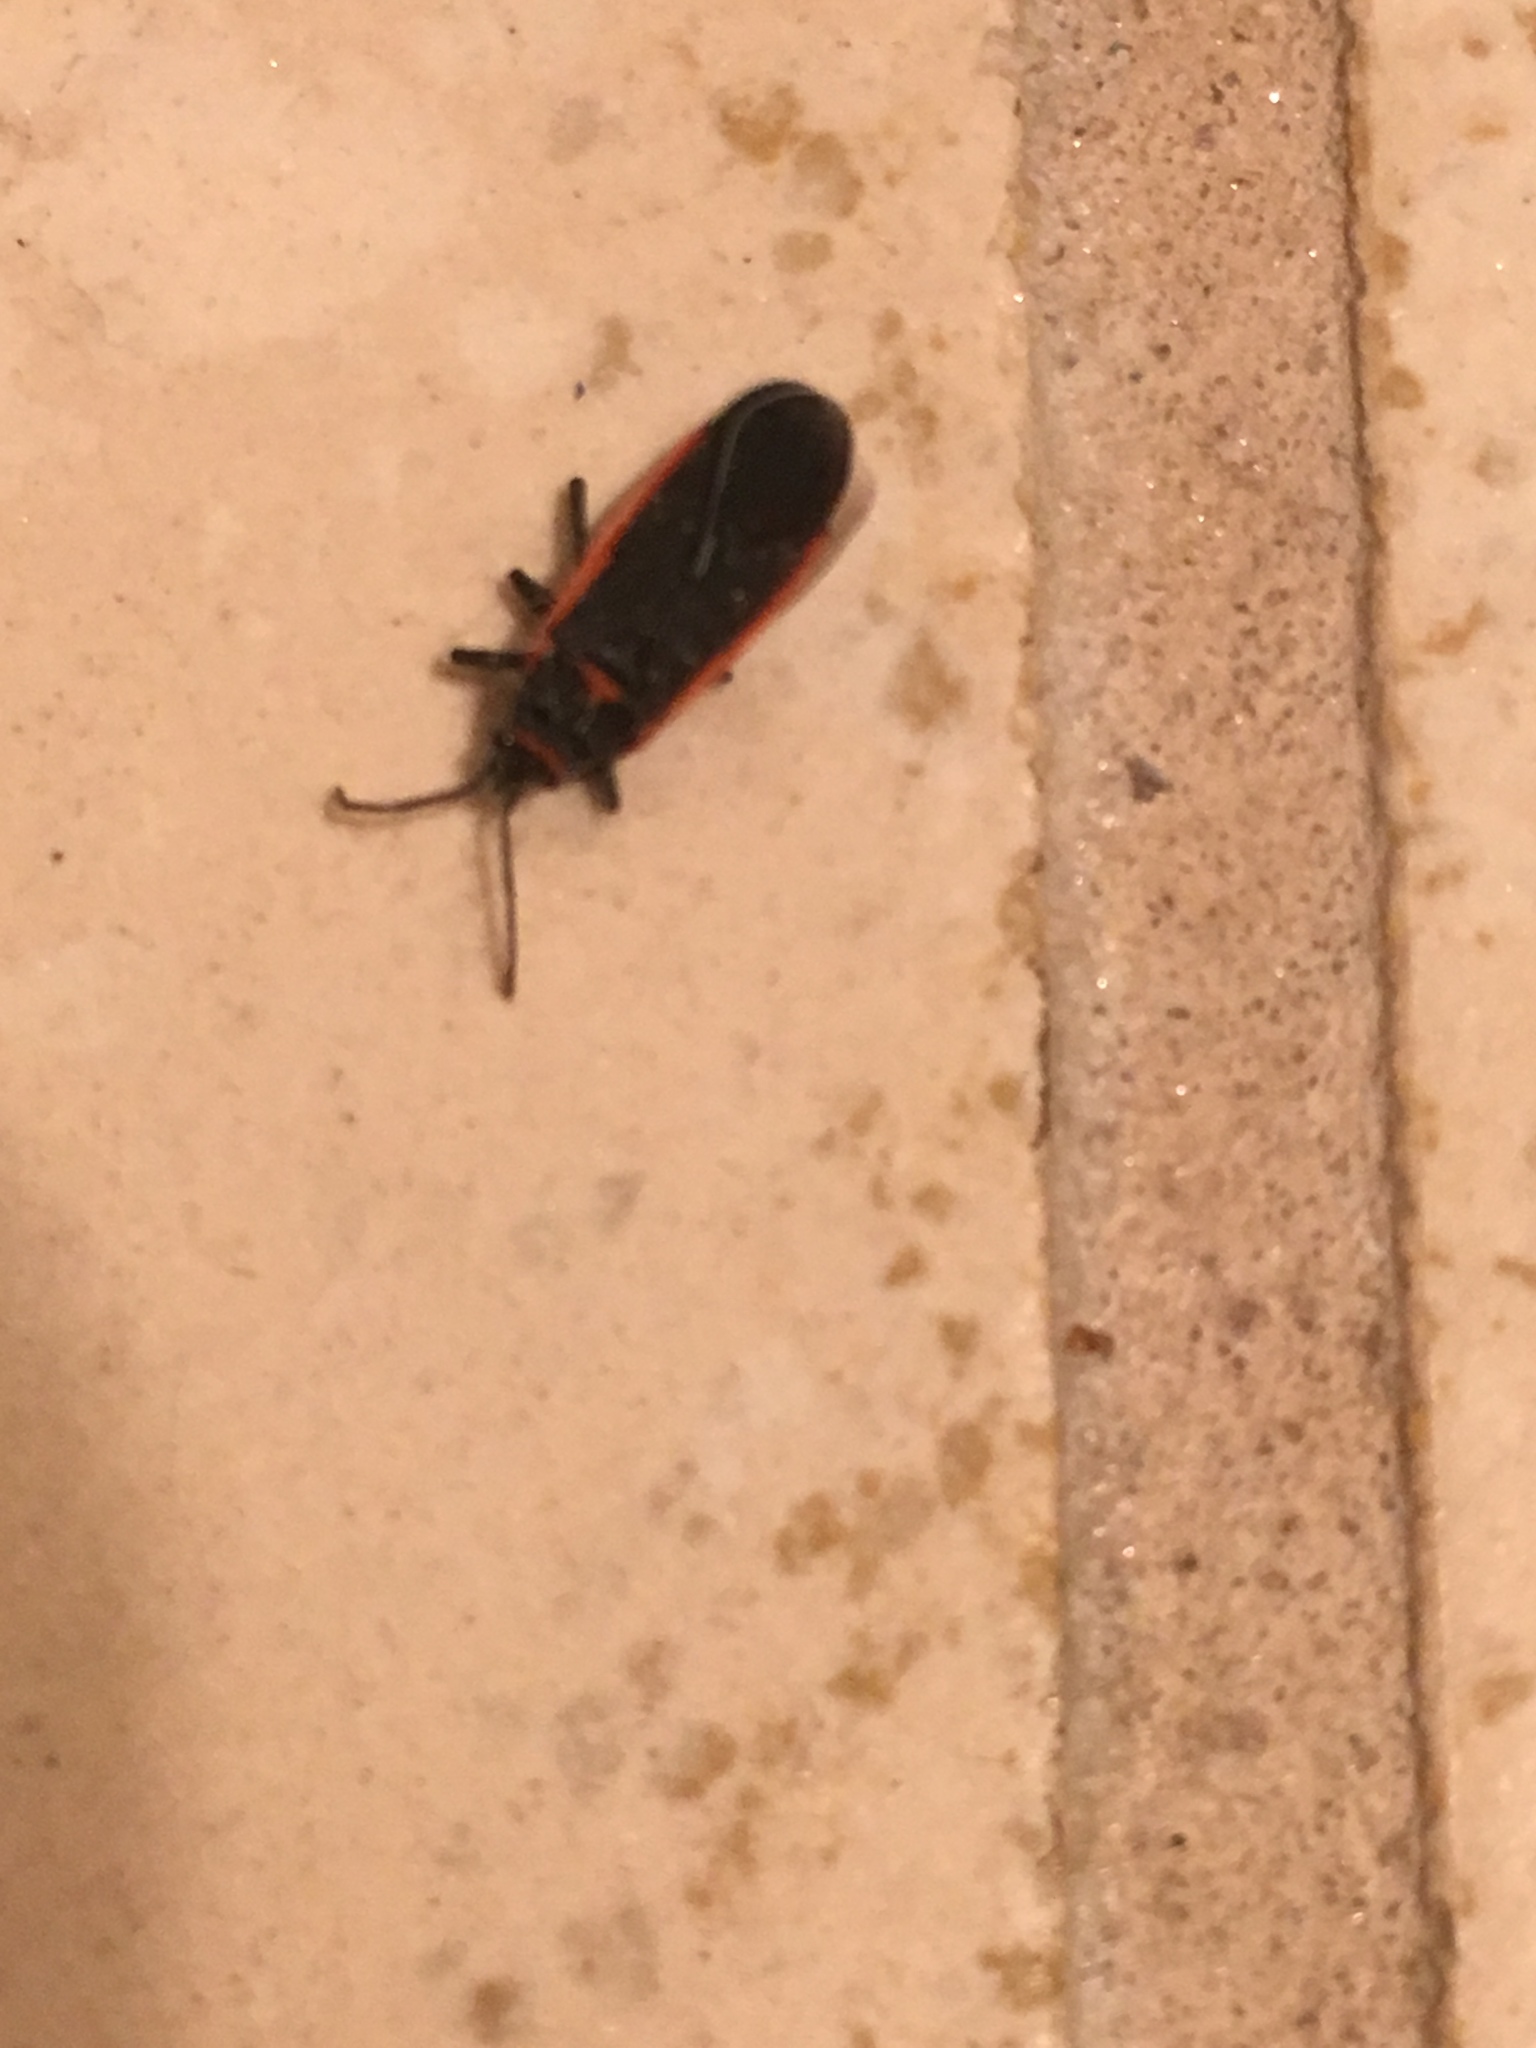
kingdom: Animalia
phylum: Arthropoda
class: Insecta
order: Hemiptera
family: Lygaeidae
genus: Melacoryphus
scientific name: Melacoryphus lateralis
